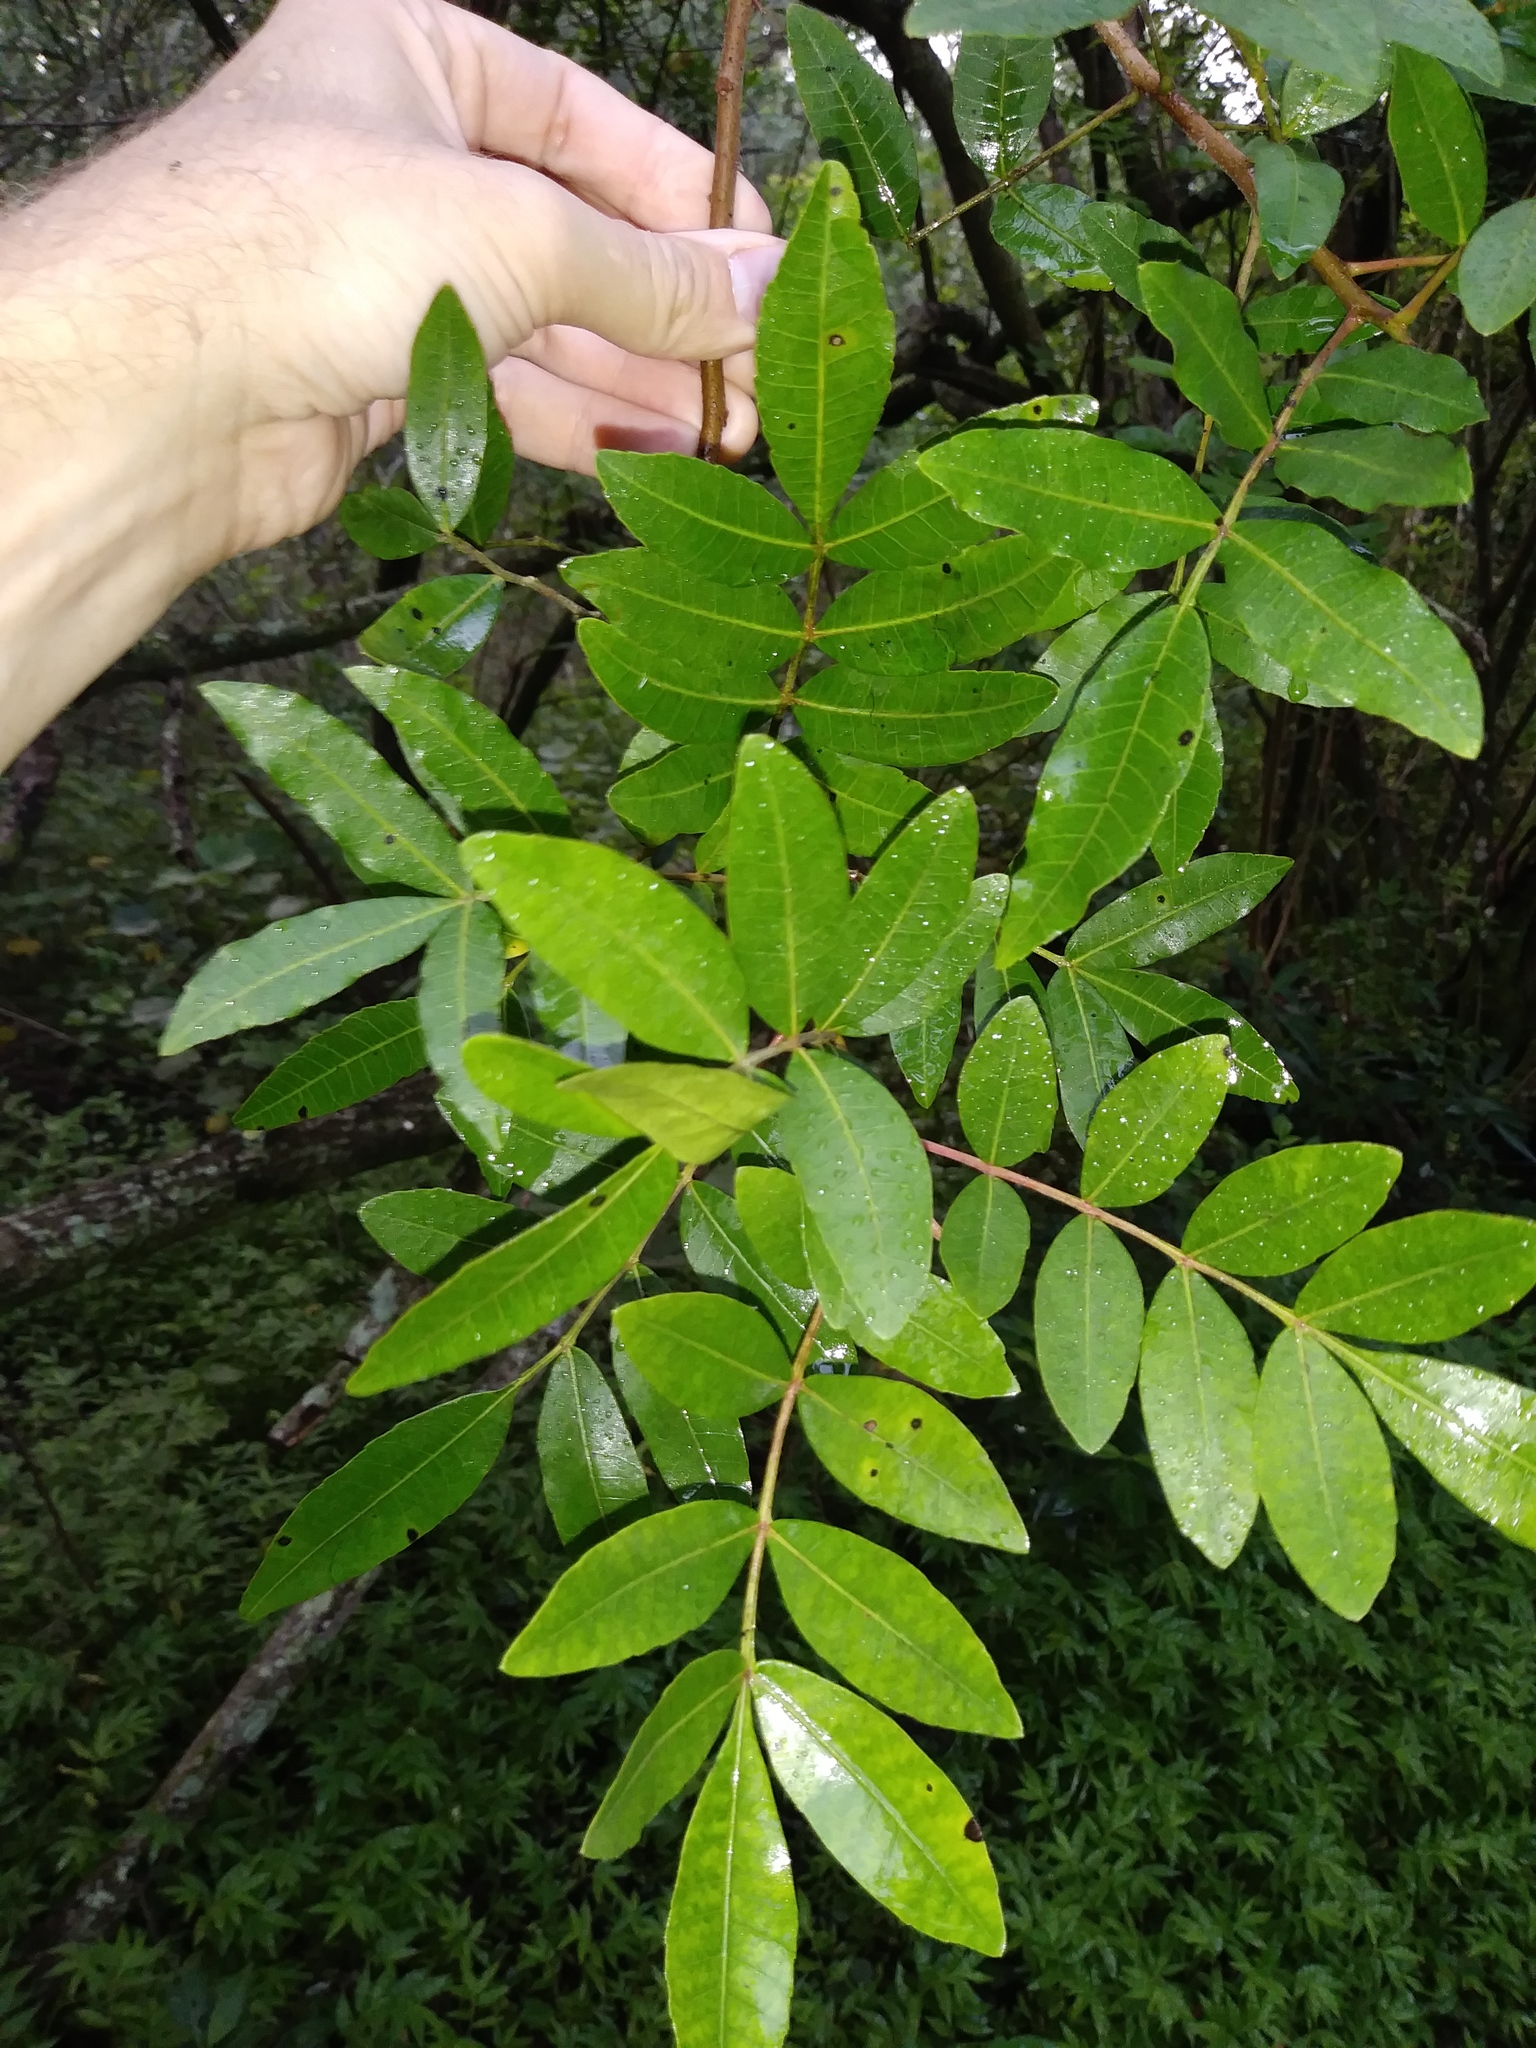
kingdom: Plantae
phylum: Tracheophyta
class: Magnoliopsida
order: Sapindales
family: Anacardiaceae
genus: Schinus
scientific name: Schinus terebinthifolia
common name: Brazilian peppertree
